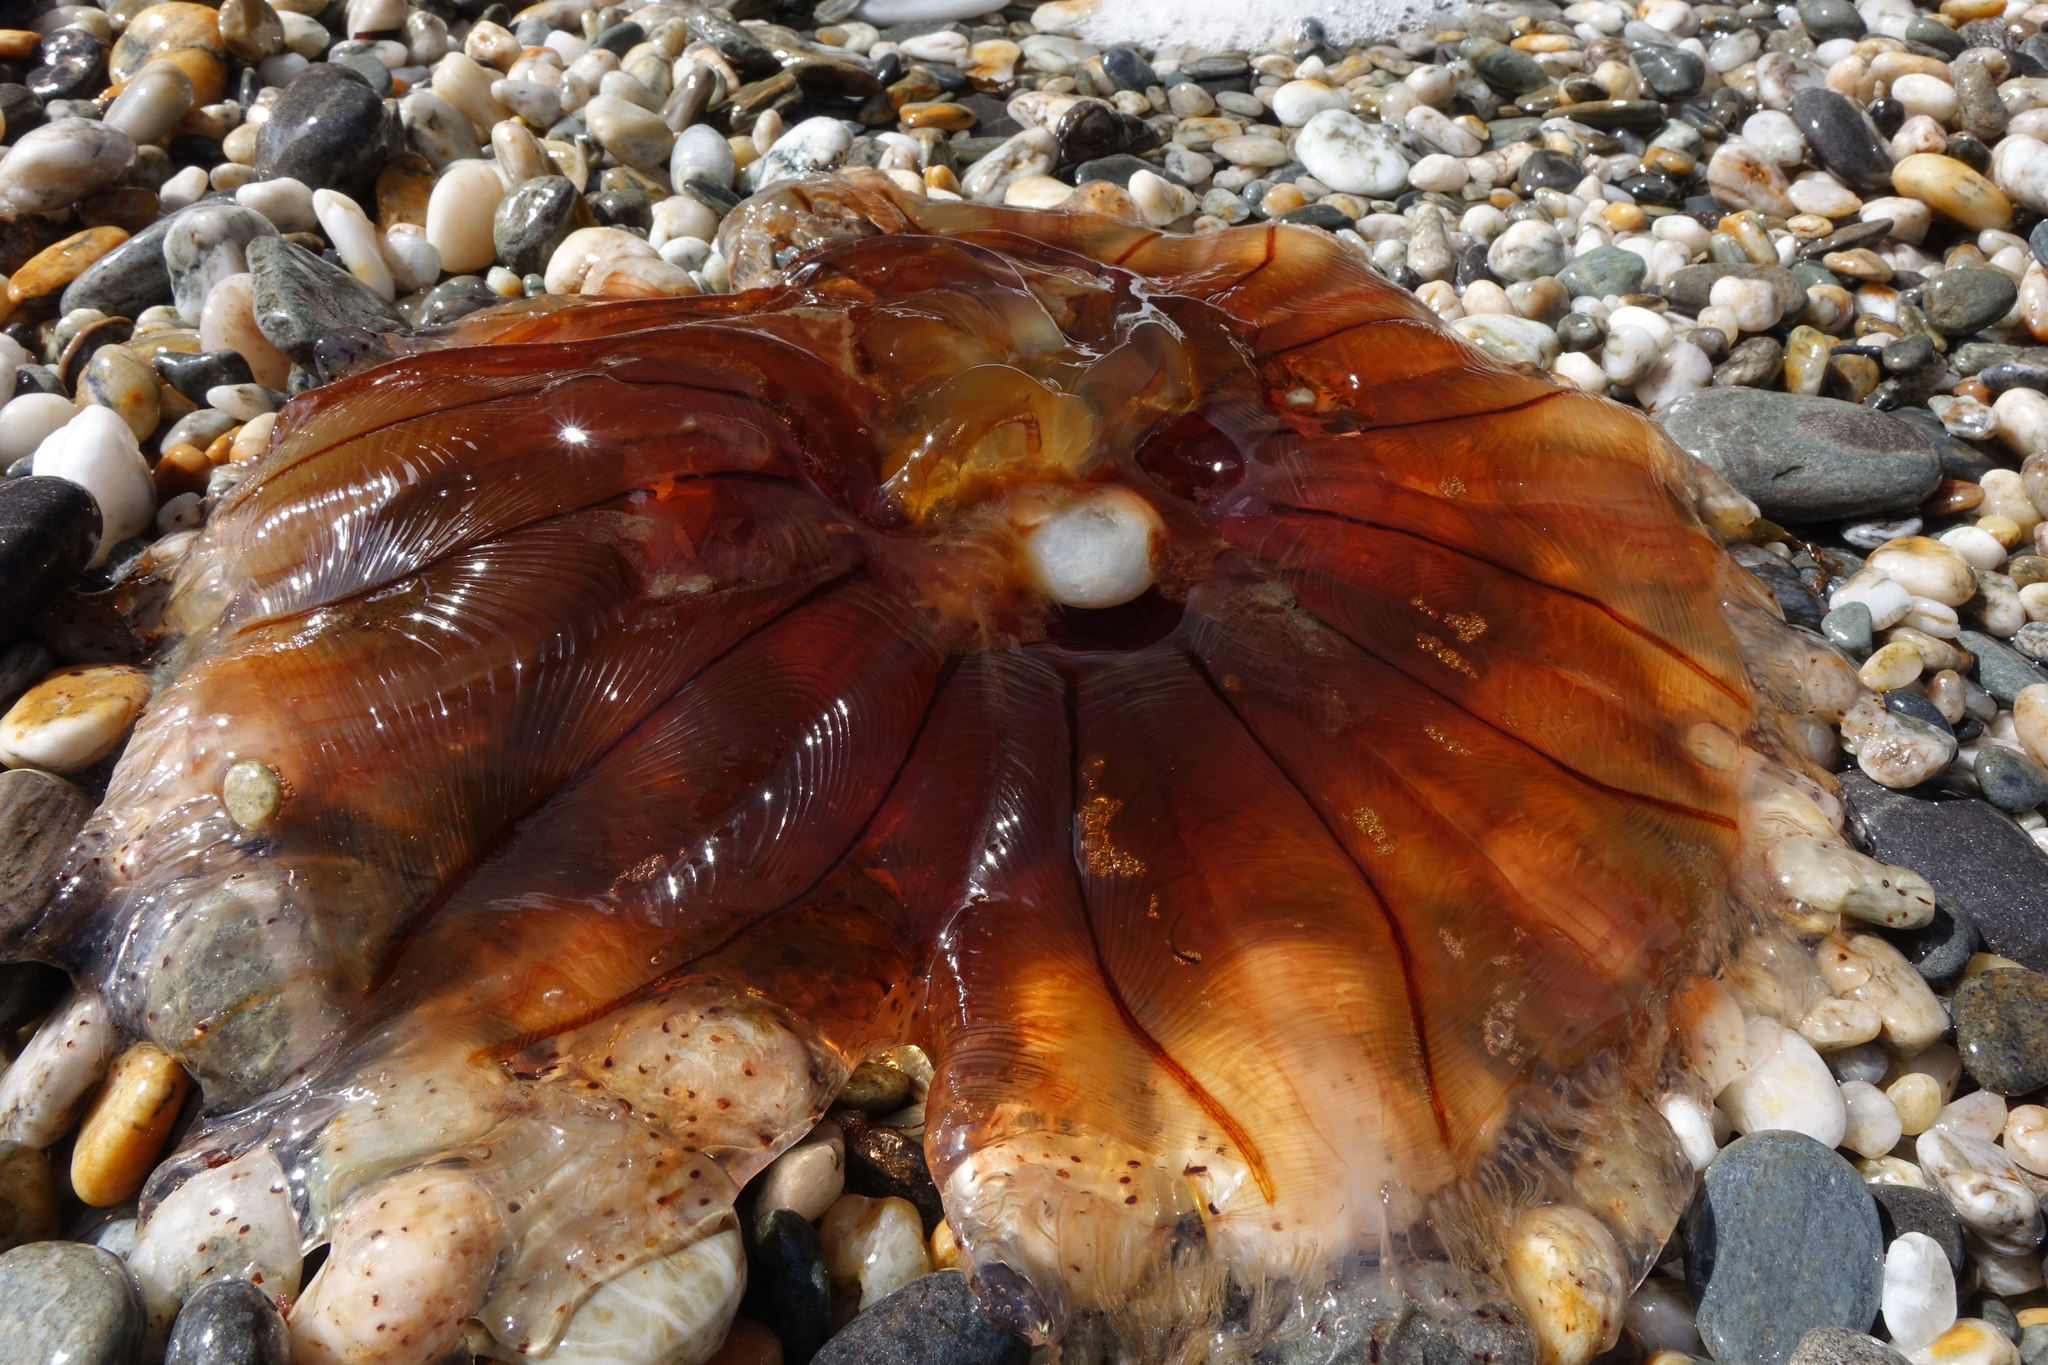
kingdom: Animalia
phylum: Cnidaria
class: Scyphozoa
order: Semaeostomeae
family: Cyaneidae
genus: Desmonema
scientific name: Desmonema gaudichaudi
